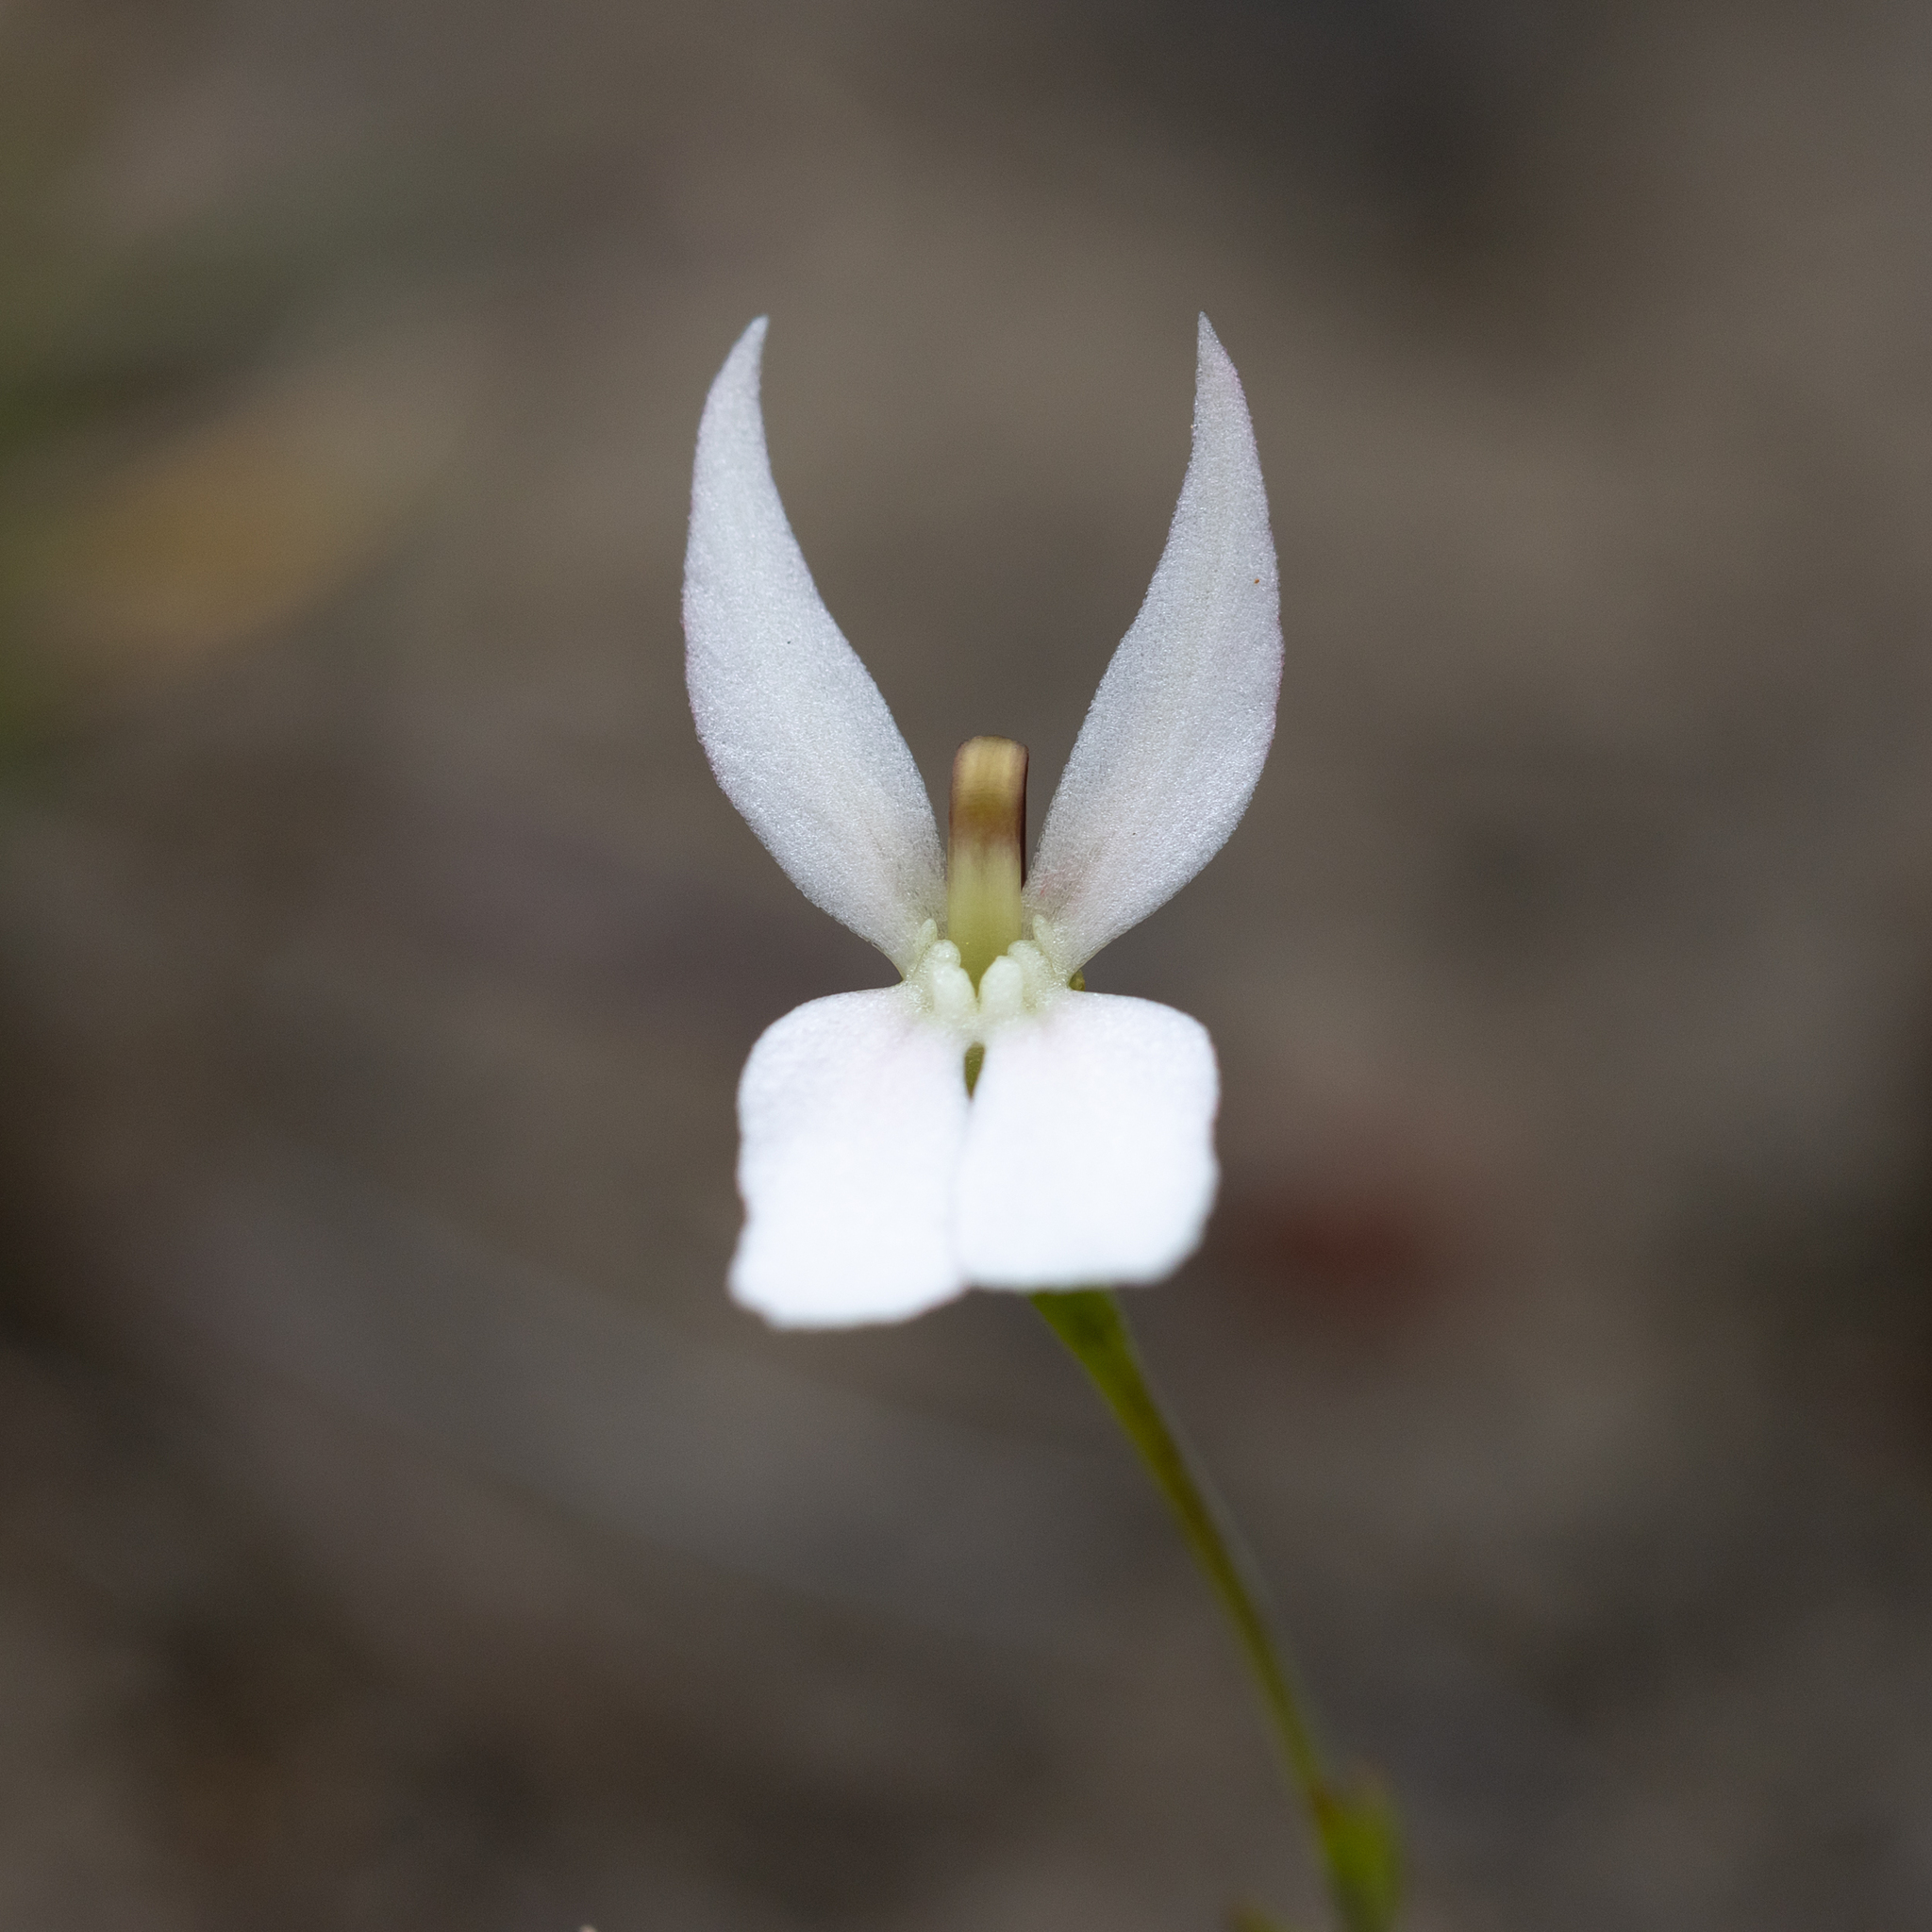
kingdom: Plantae
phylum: Tracheophyta
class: Magnoliopsida
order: Asterales
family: Stylidiaceae
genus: Stylidium
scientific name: Stylidium petiolare
